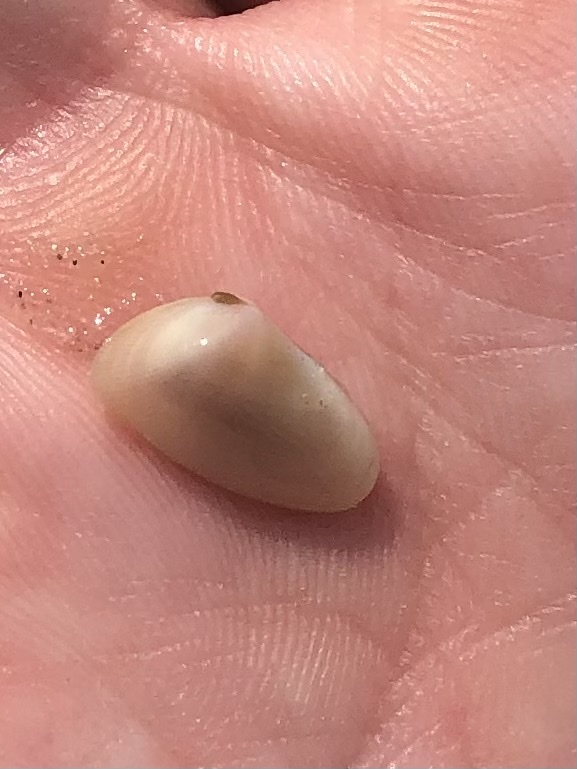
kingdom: Animalia
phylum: Mollusca
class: Bivalvia
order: Cardiida
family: Donacidae
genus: Donax
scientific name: Donax variabilis
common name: Butterfly shell
